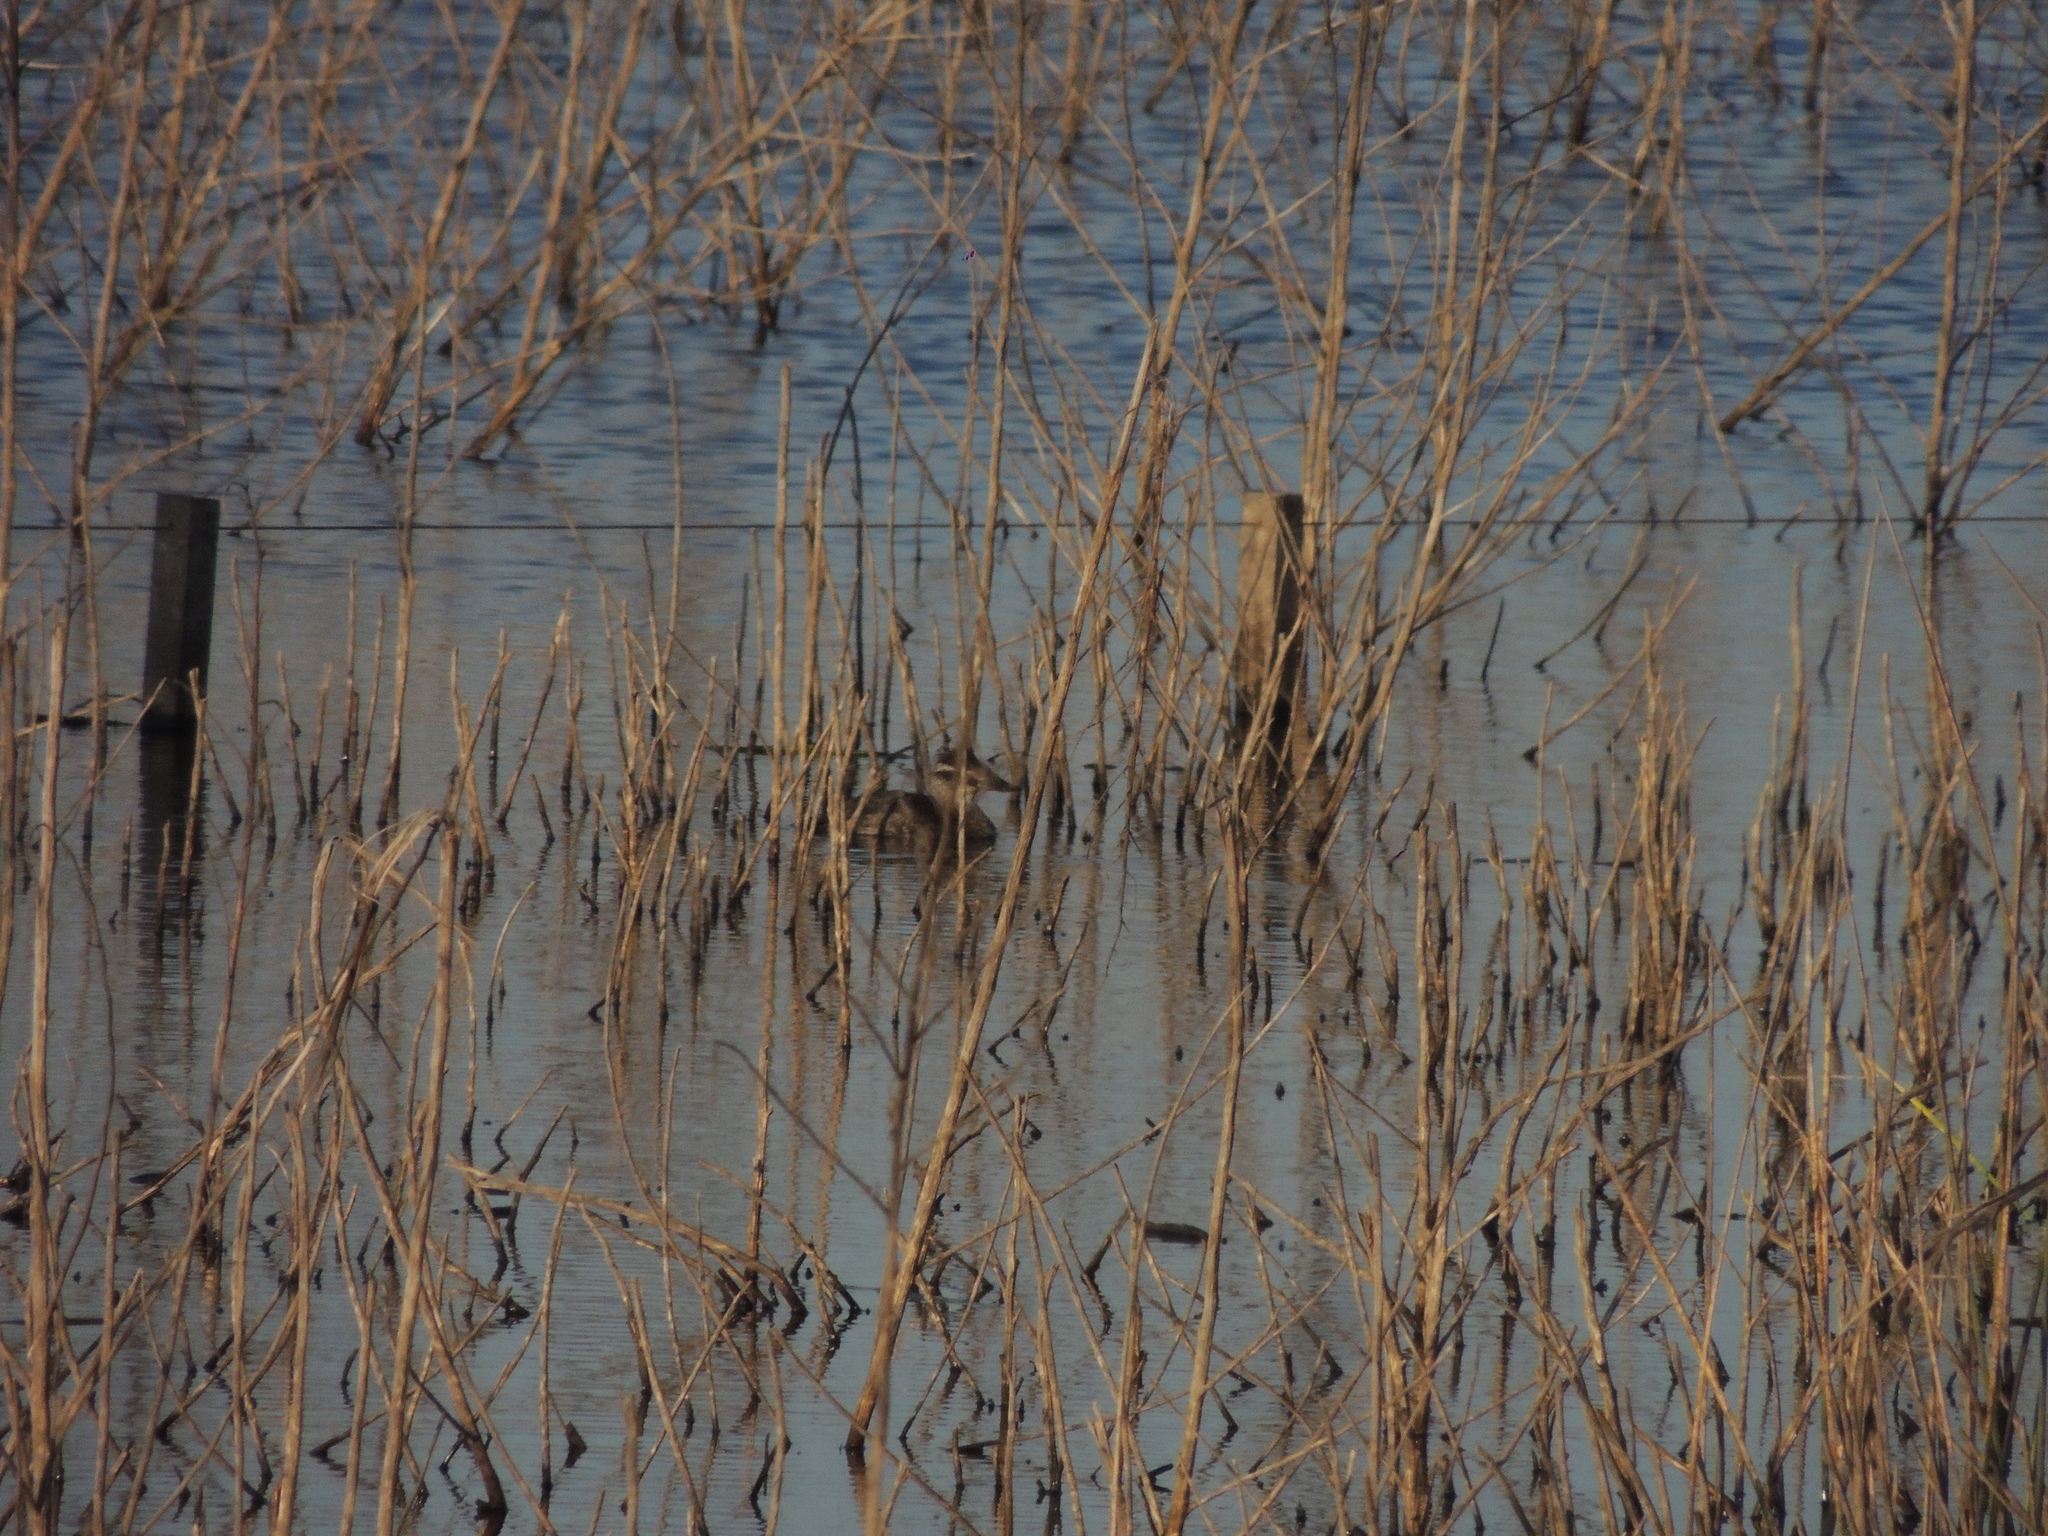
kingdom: Animalia
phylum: Chordata
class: Aves
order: Anseriformes
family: Anatidae
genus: Oxyura
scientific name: Oxyura vittata
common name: Lake duck
